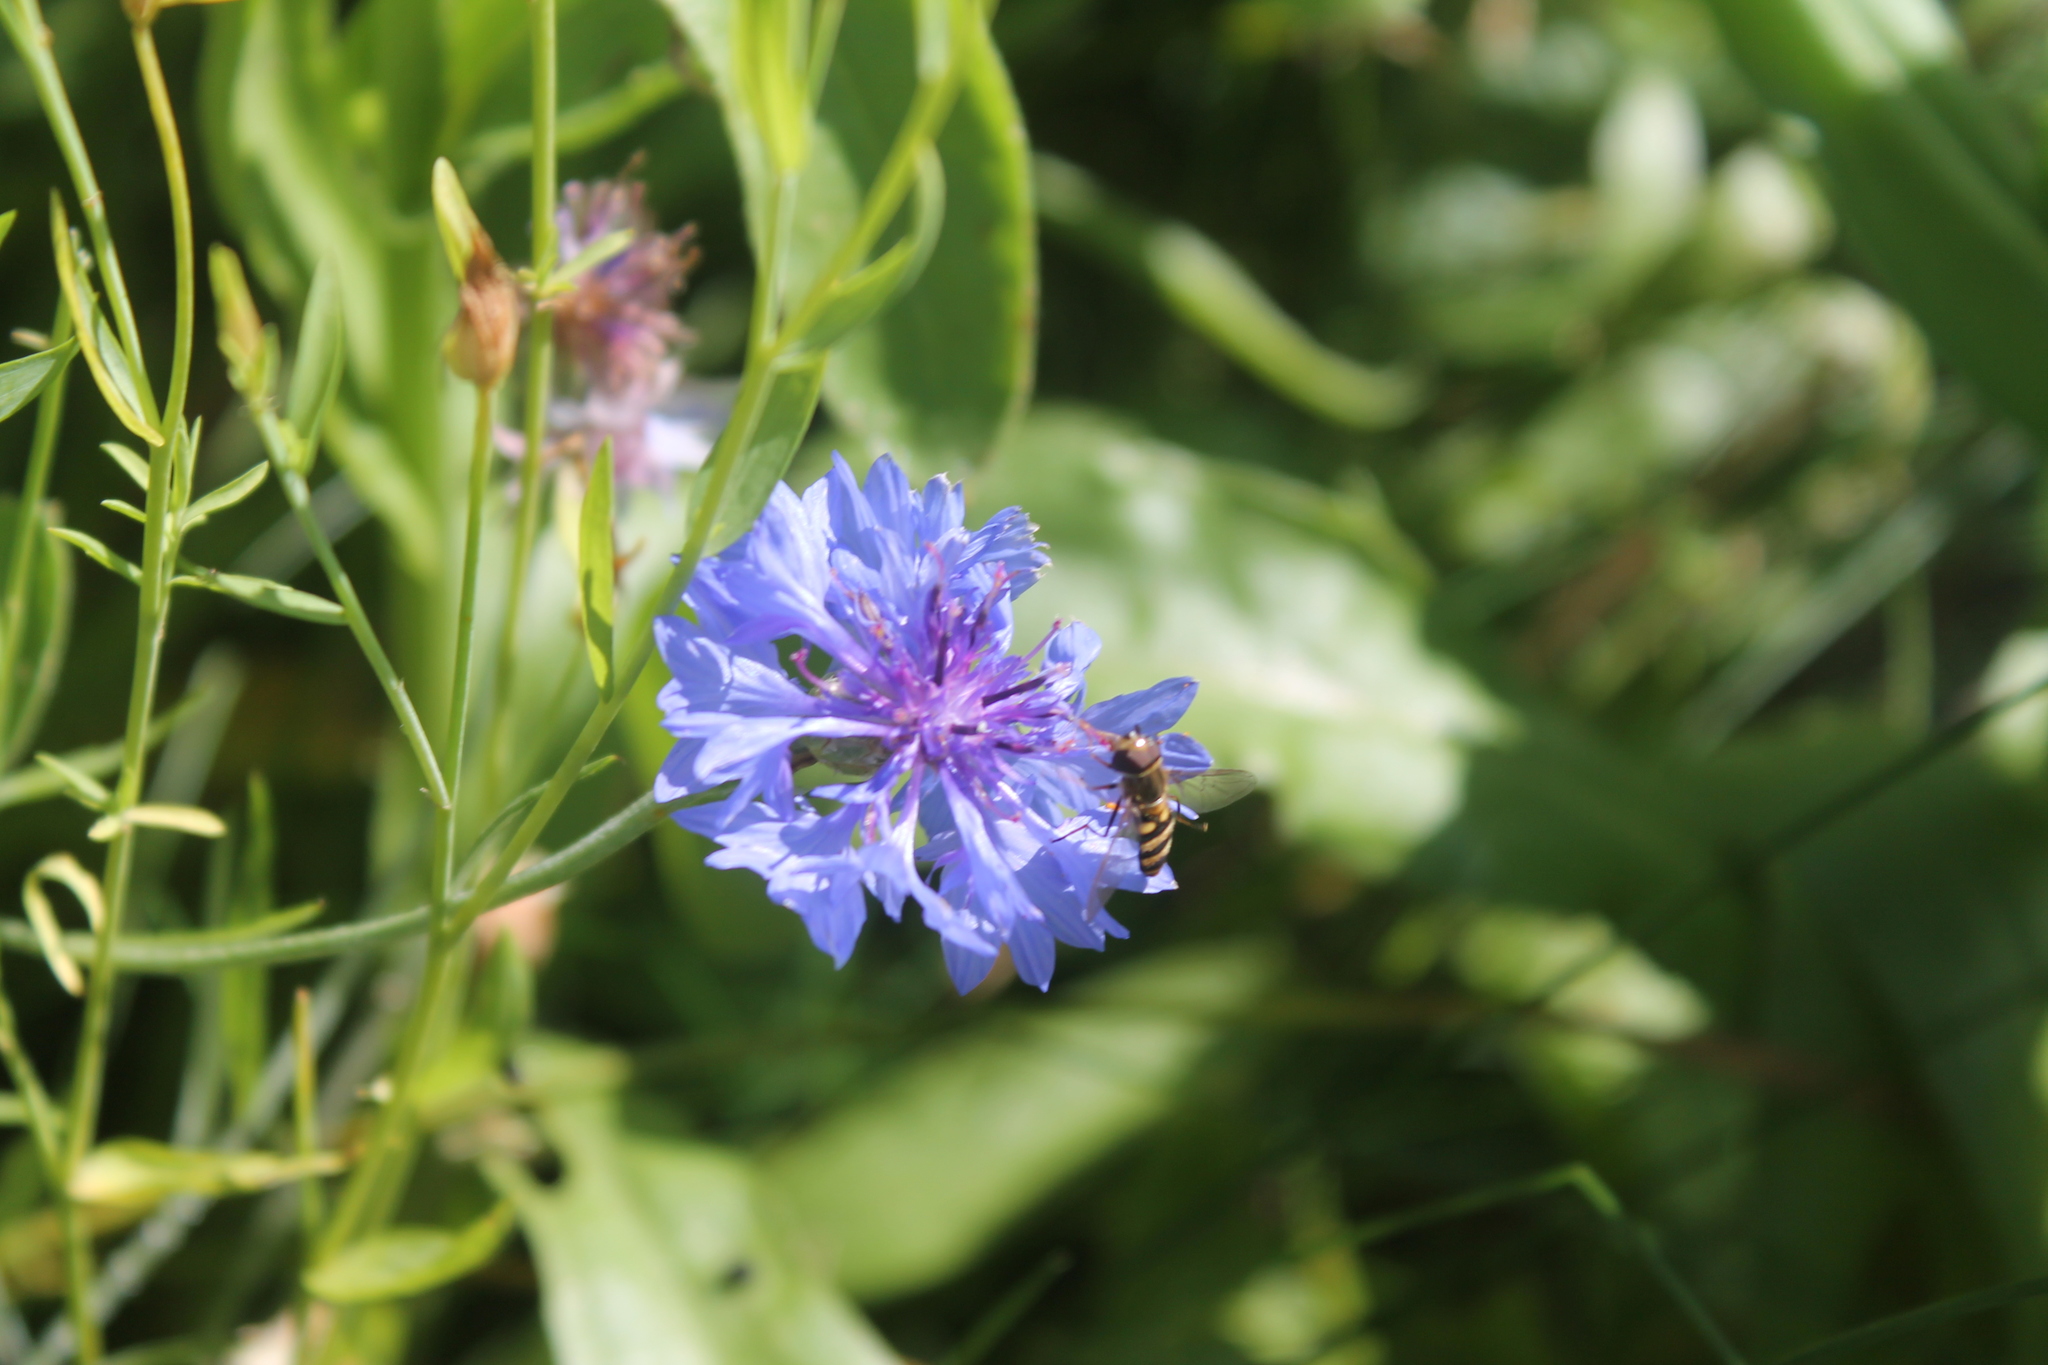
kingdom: Animalia
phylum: Arthropoda
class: Insecta
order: Diptera
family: Syrphidae
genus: Eupeodes
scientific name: Eupeodes
